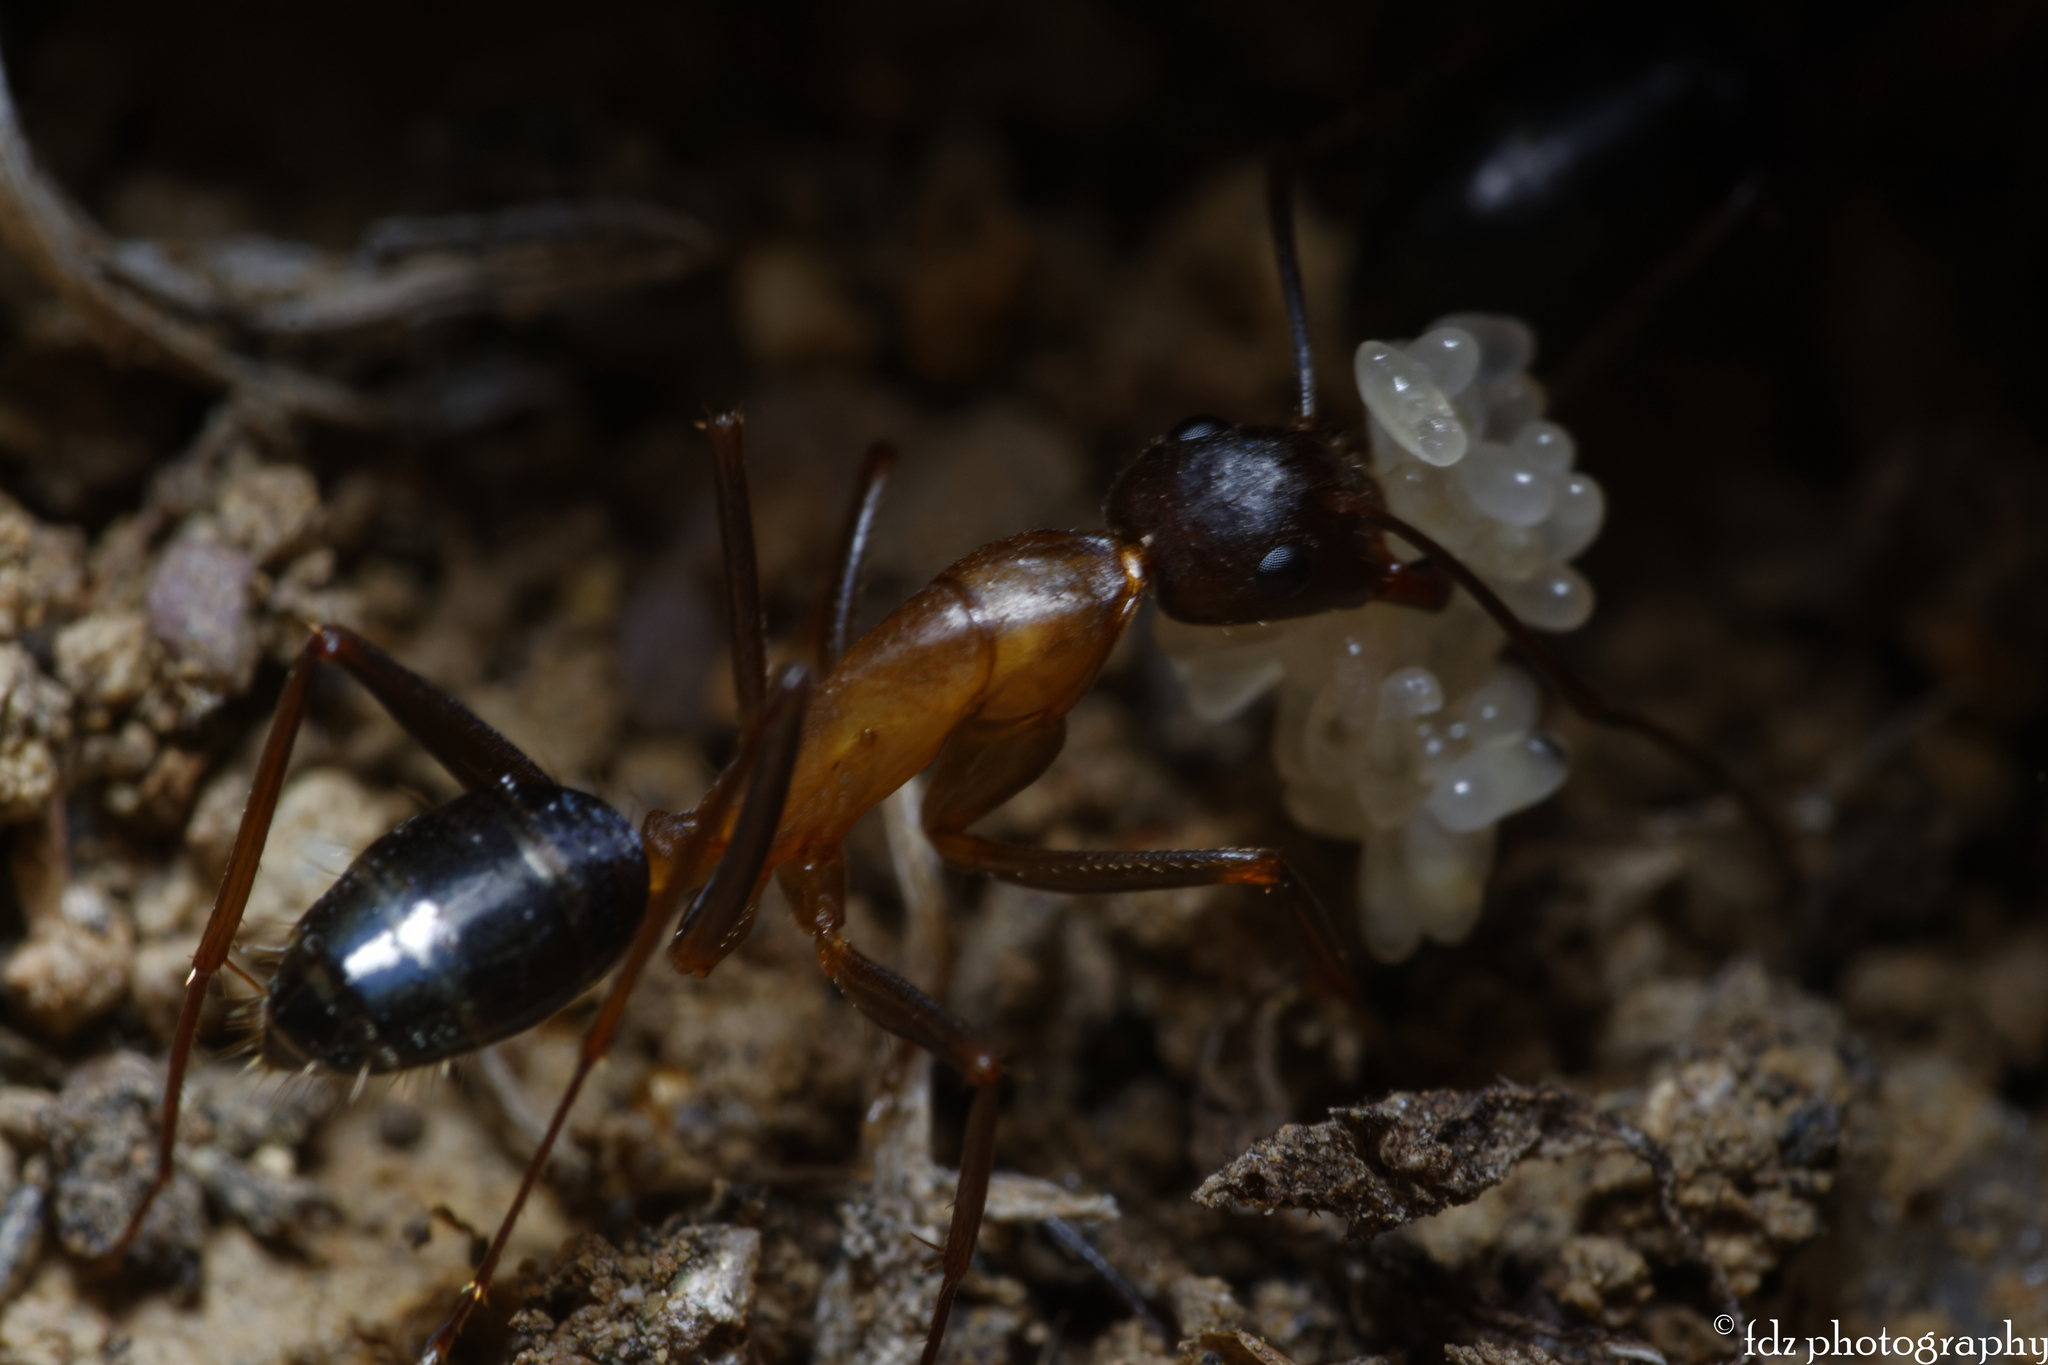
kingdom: Animalia
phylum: Arthropoda
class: Insecta
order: Hymenoptera
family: Formicidae
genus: Camponotus
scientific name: Camponotus barbaricus
